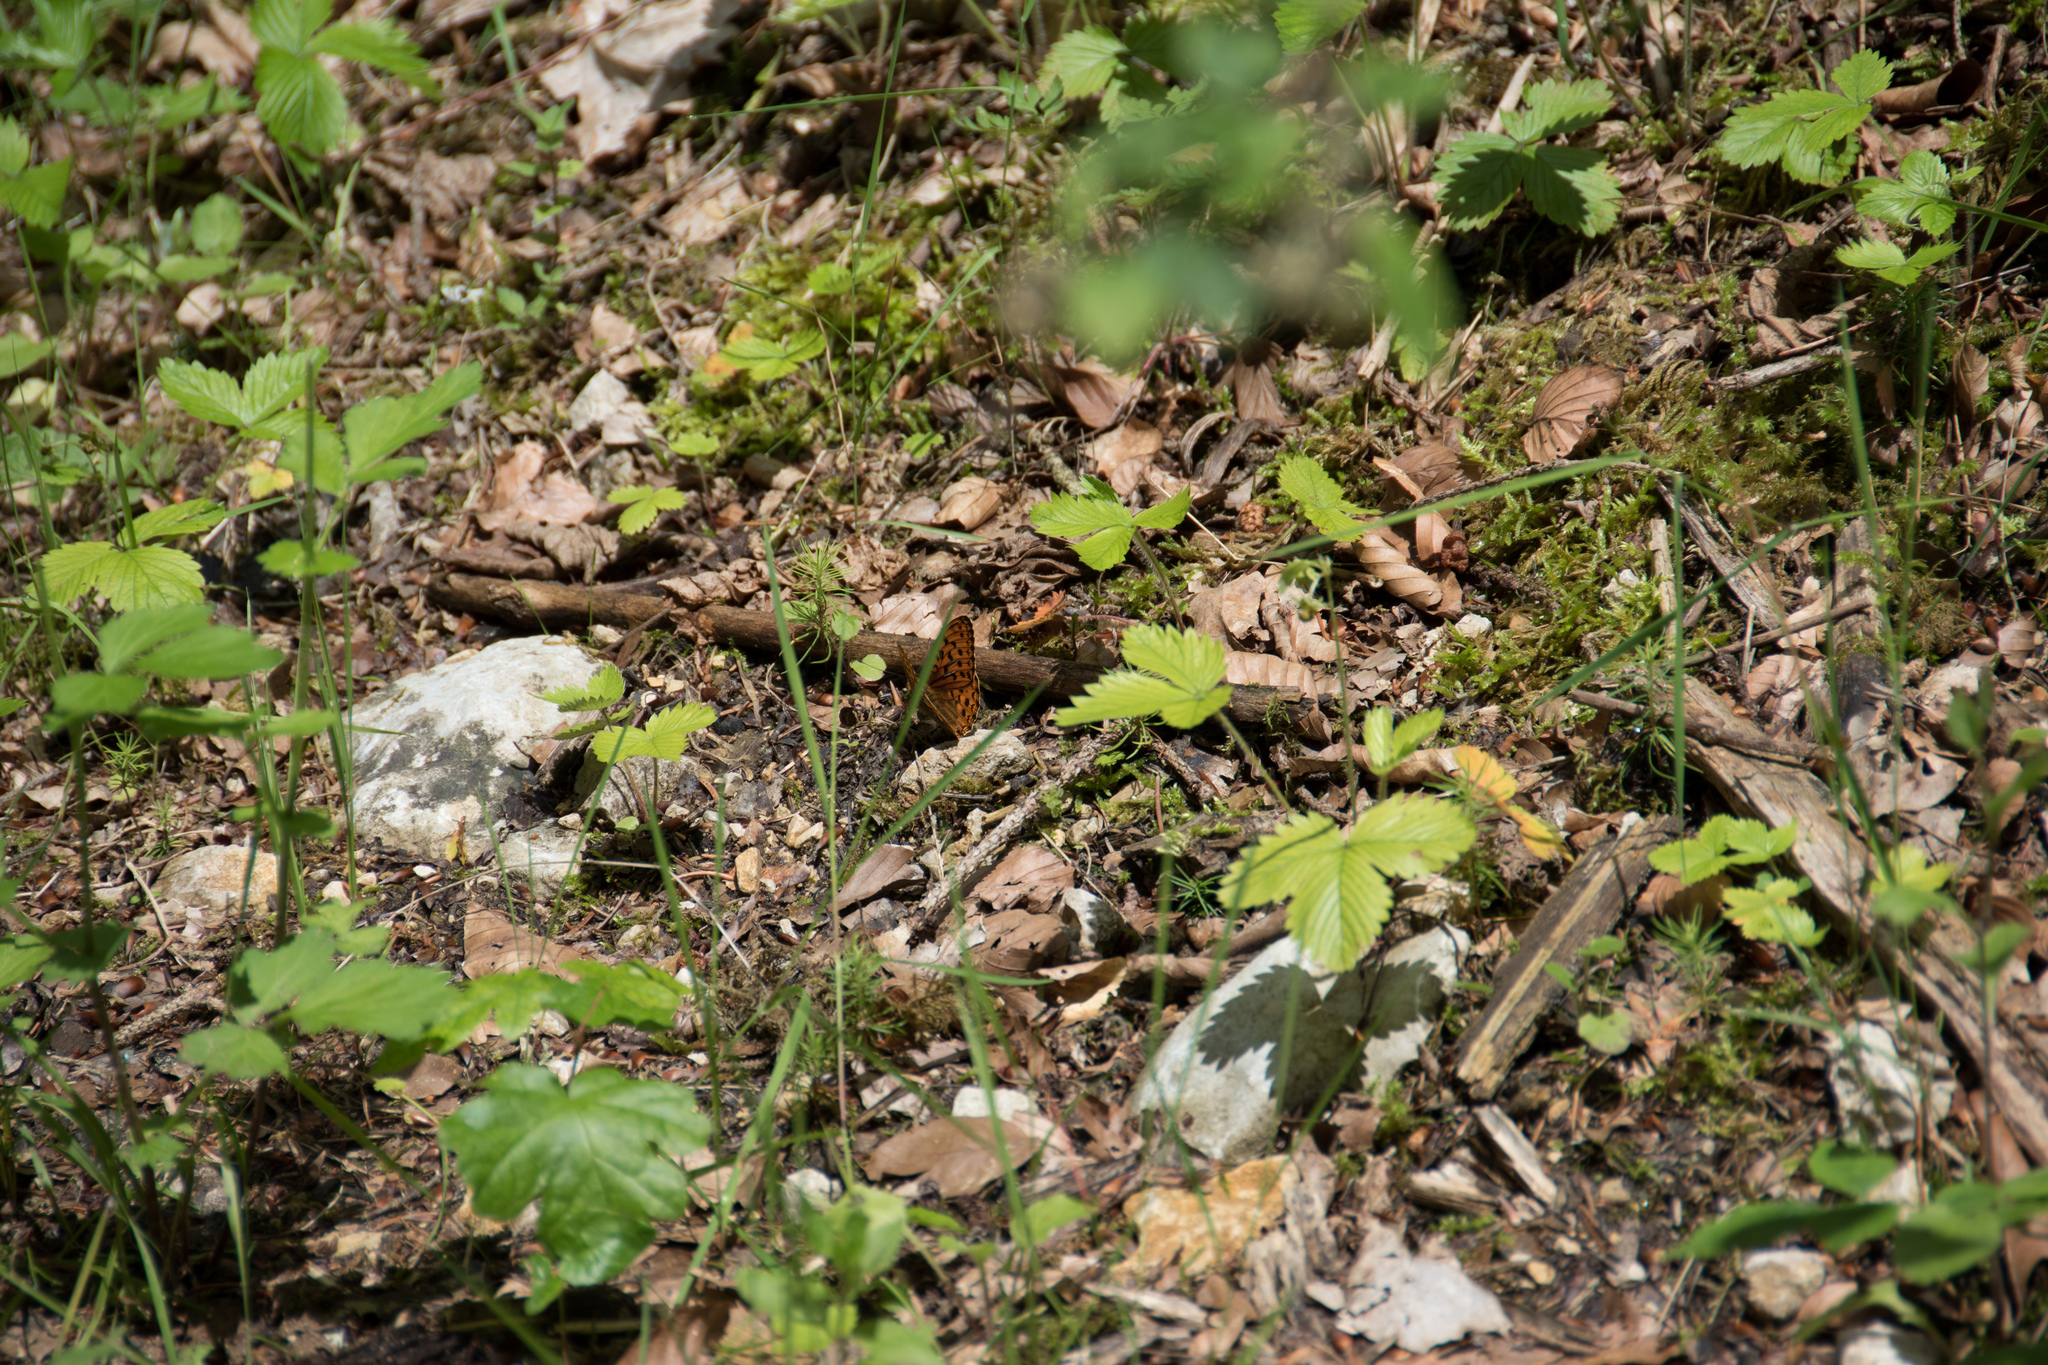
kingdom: Animalia
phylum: Arthropoda
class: Insecta
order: Lepidoptera
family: Nymphalidae
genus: Fabriciana
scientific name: Fabriciana adippe
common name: High brown fritillary
